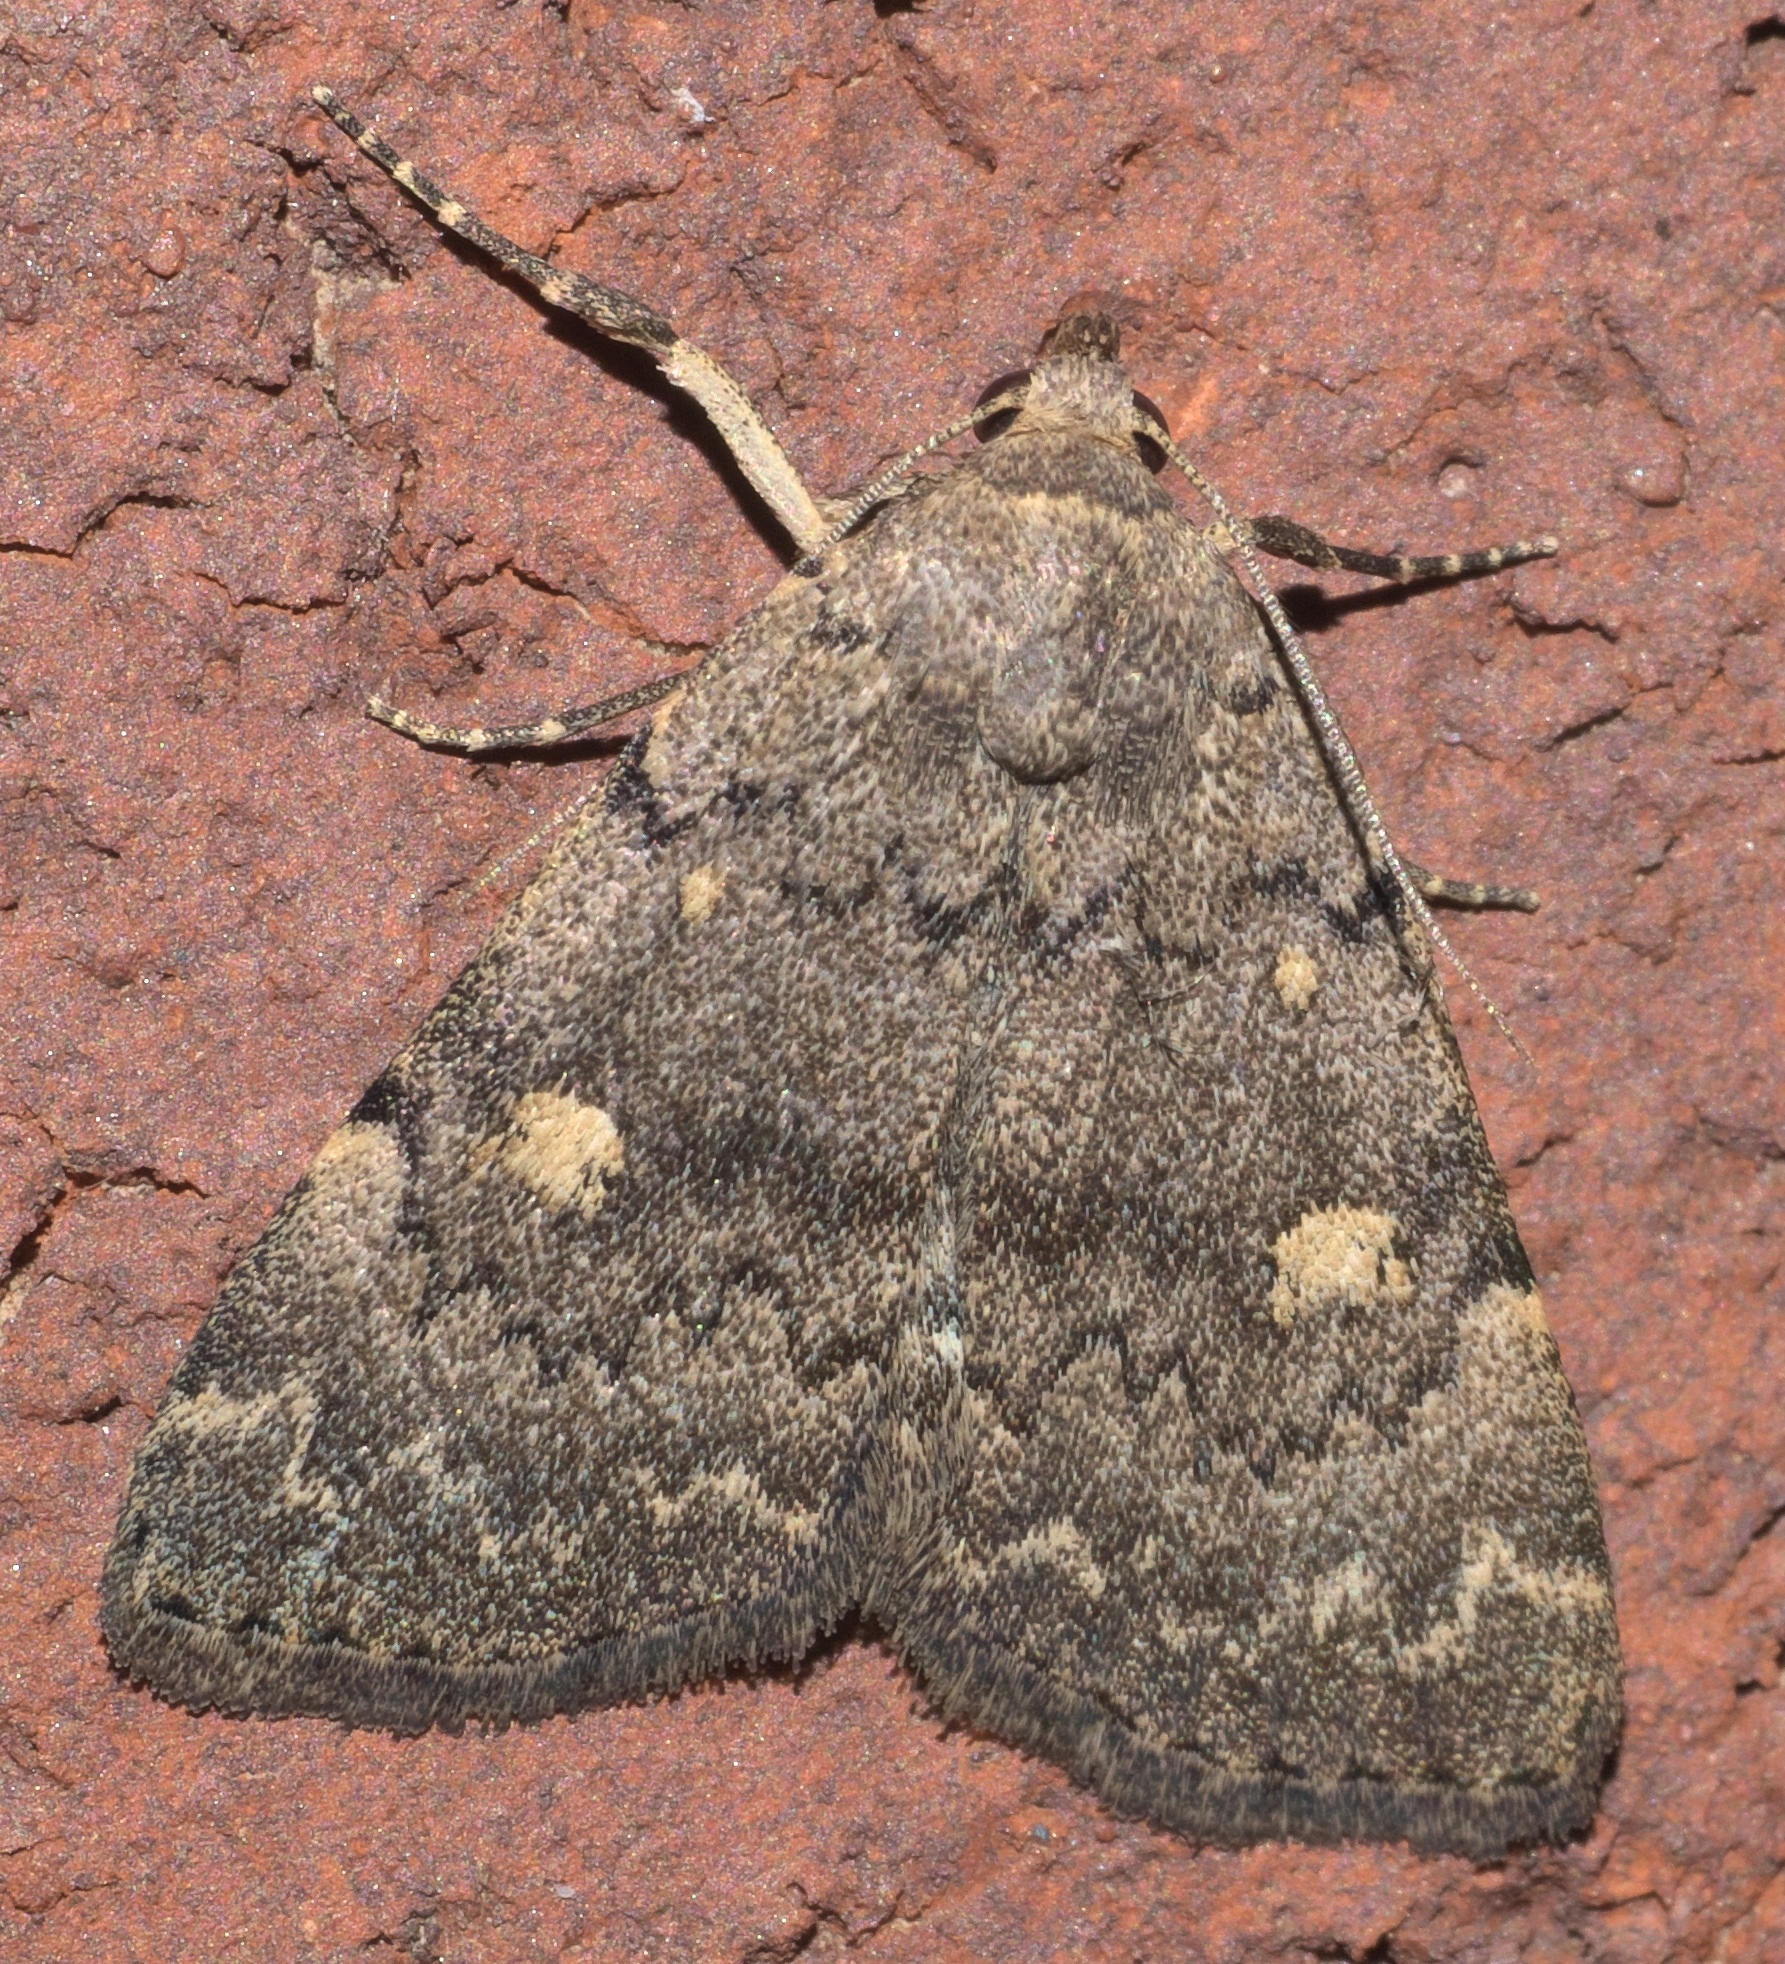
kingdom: Animalia
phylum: Arthropoda
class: Insecta
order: Lepidoptera
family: Erebidae
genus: Idia
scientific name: Idia aemula
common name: Common idia moth
